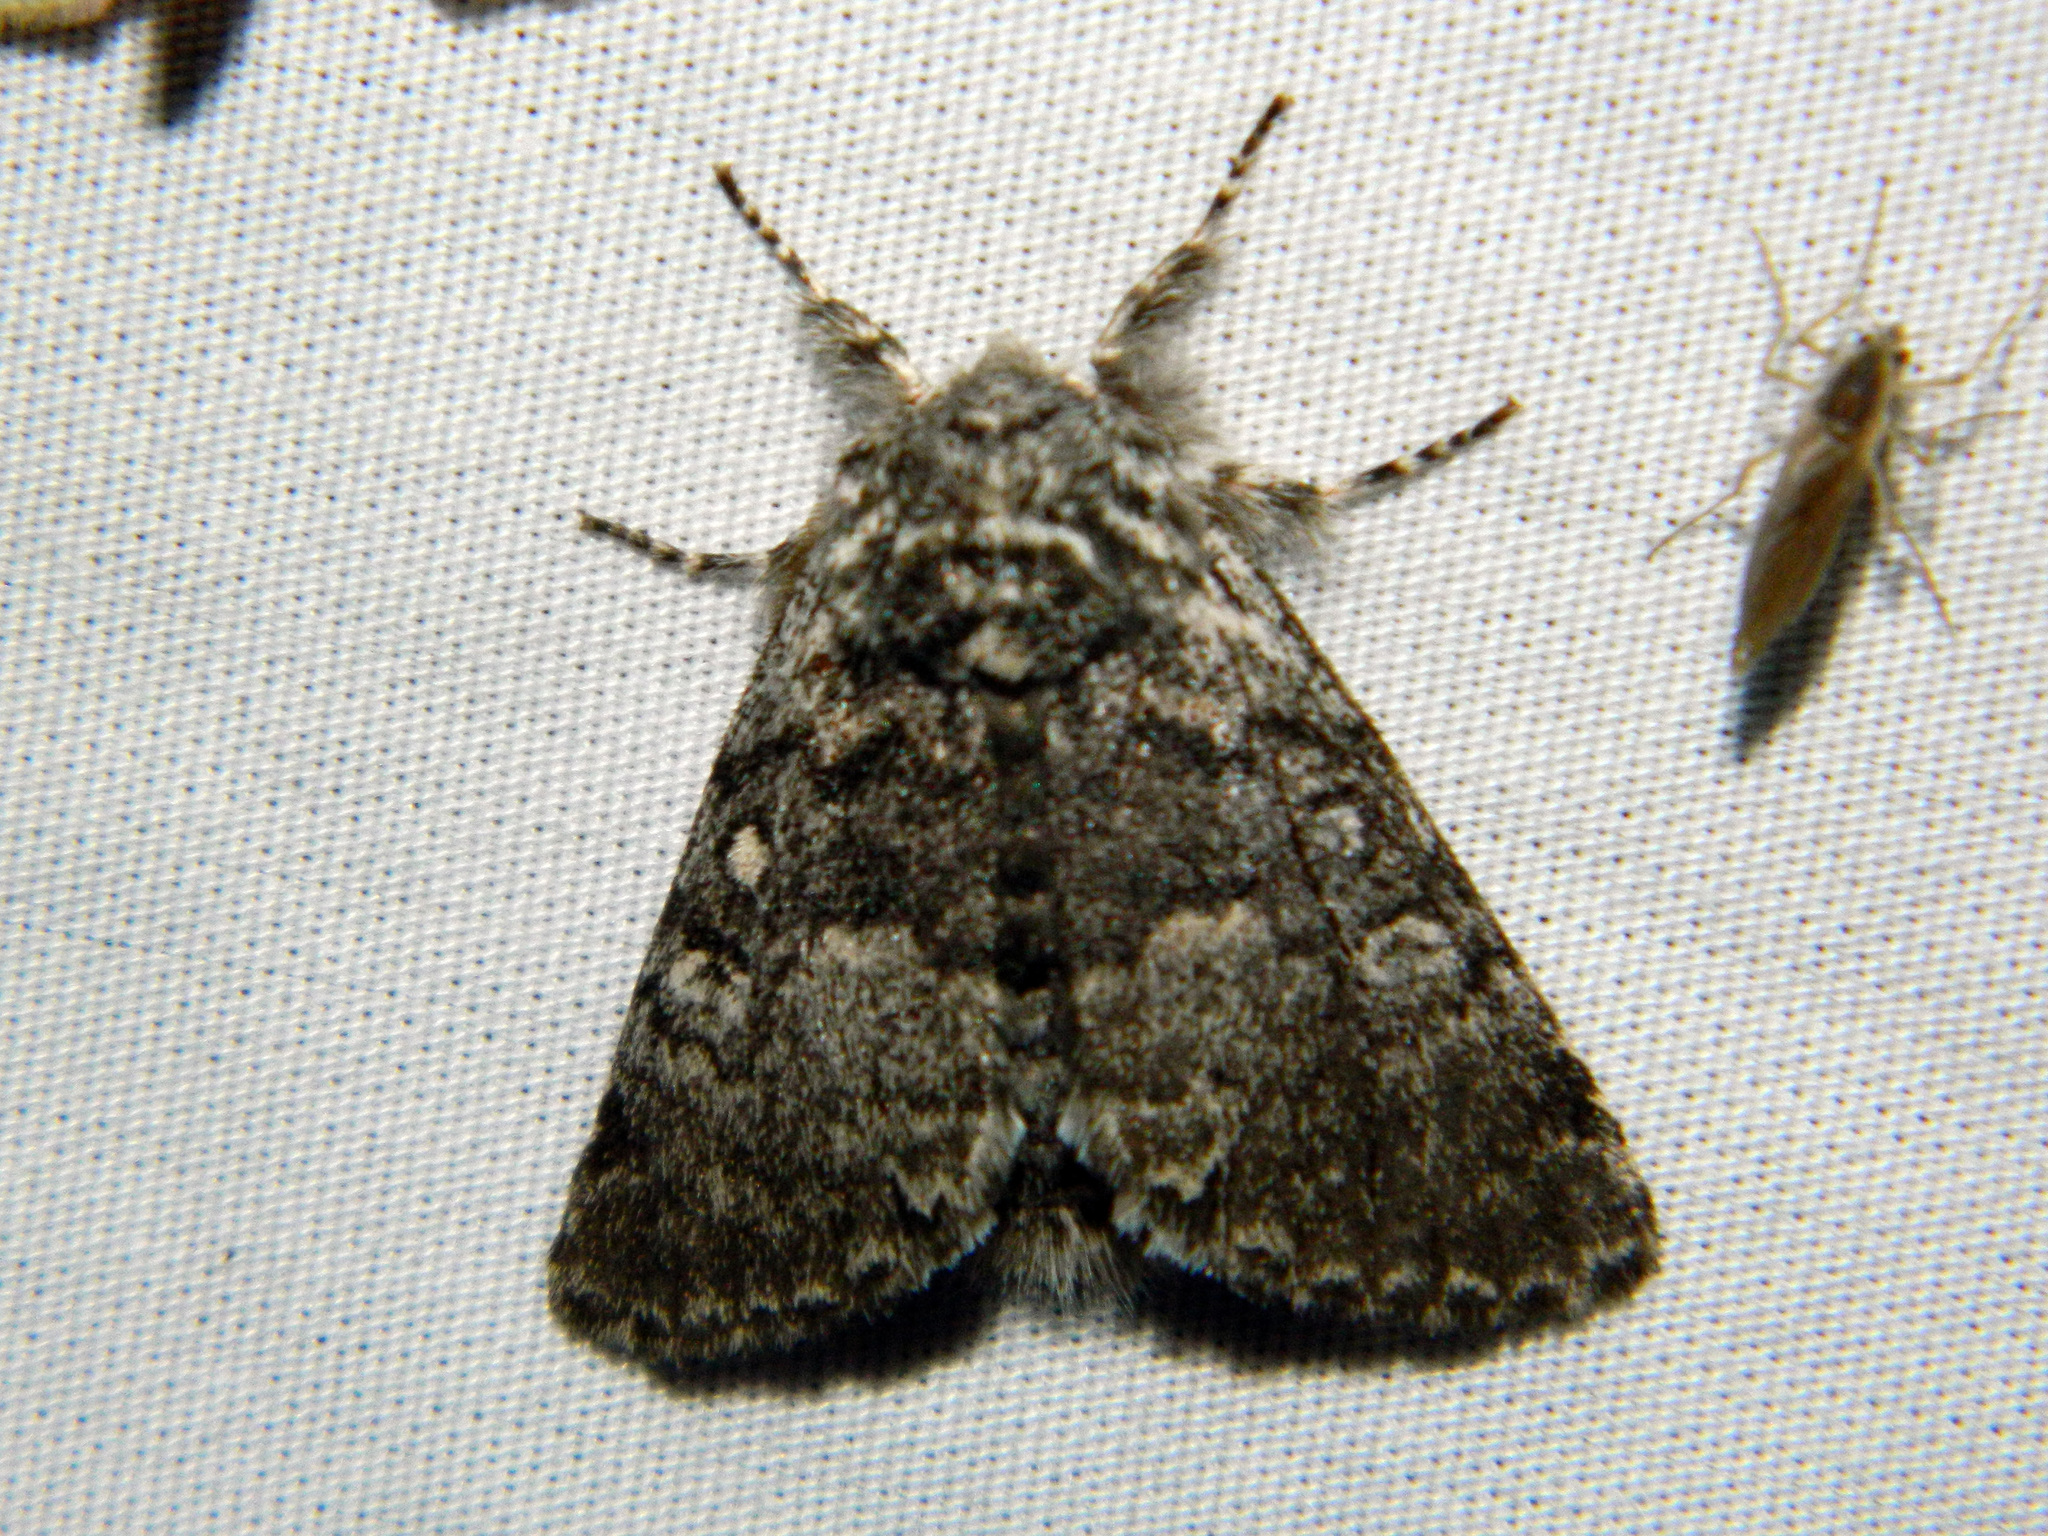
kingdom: Animalia
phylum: Arthropoda
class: Insecta
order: Lepidoptera
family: Noctuidae
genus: Colocasia
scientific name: Colocasia propinquilinea
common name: Close-banded demas
